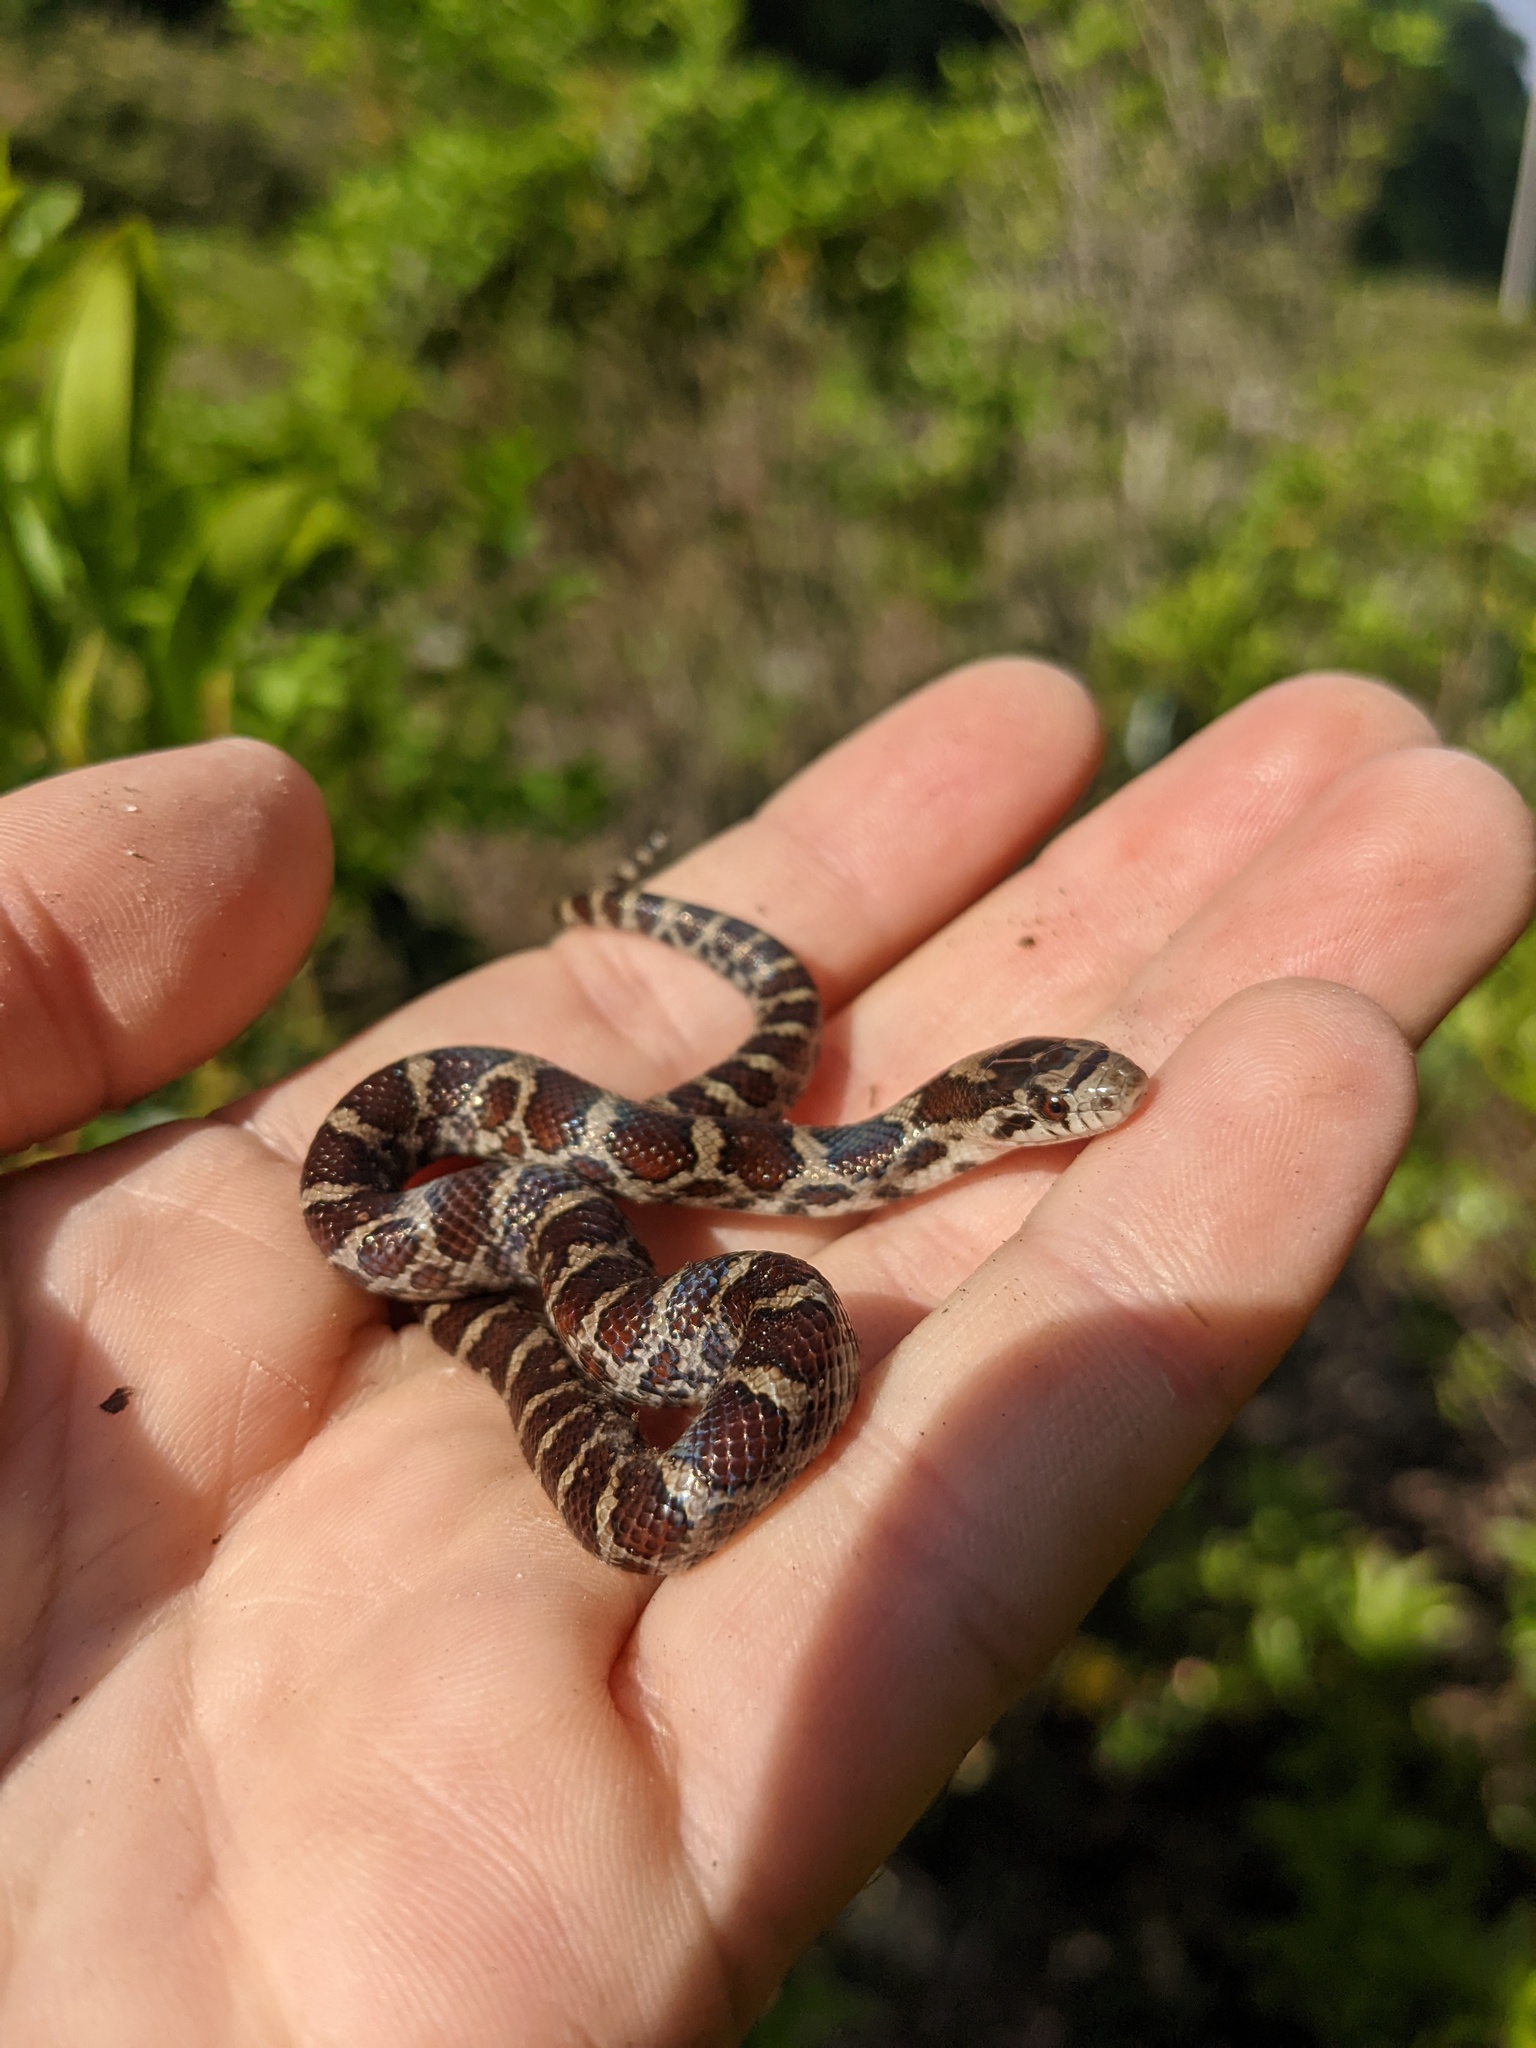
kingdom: Animalia
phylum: Chordata
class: Squamata
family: Colubridae
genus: Lampropeltis
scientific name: Lampropeltis triangulum
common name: Eastern milksnake
